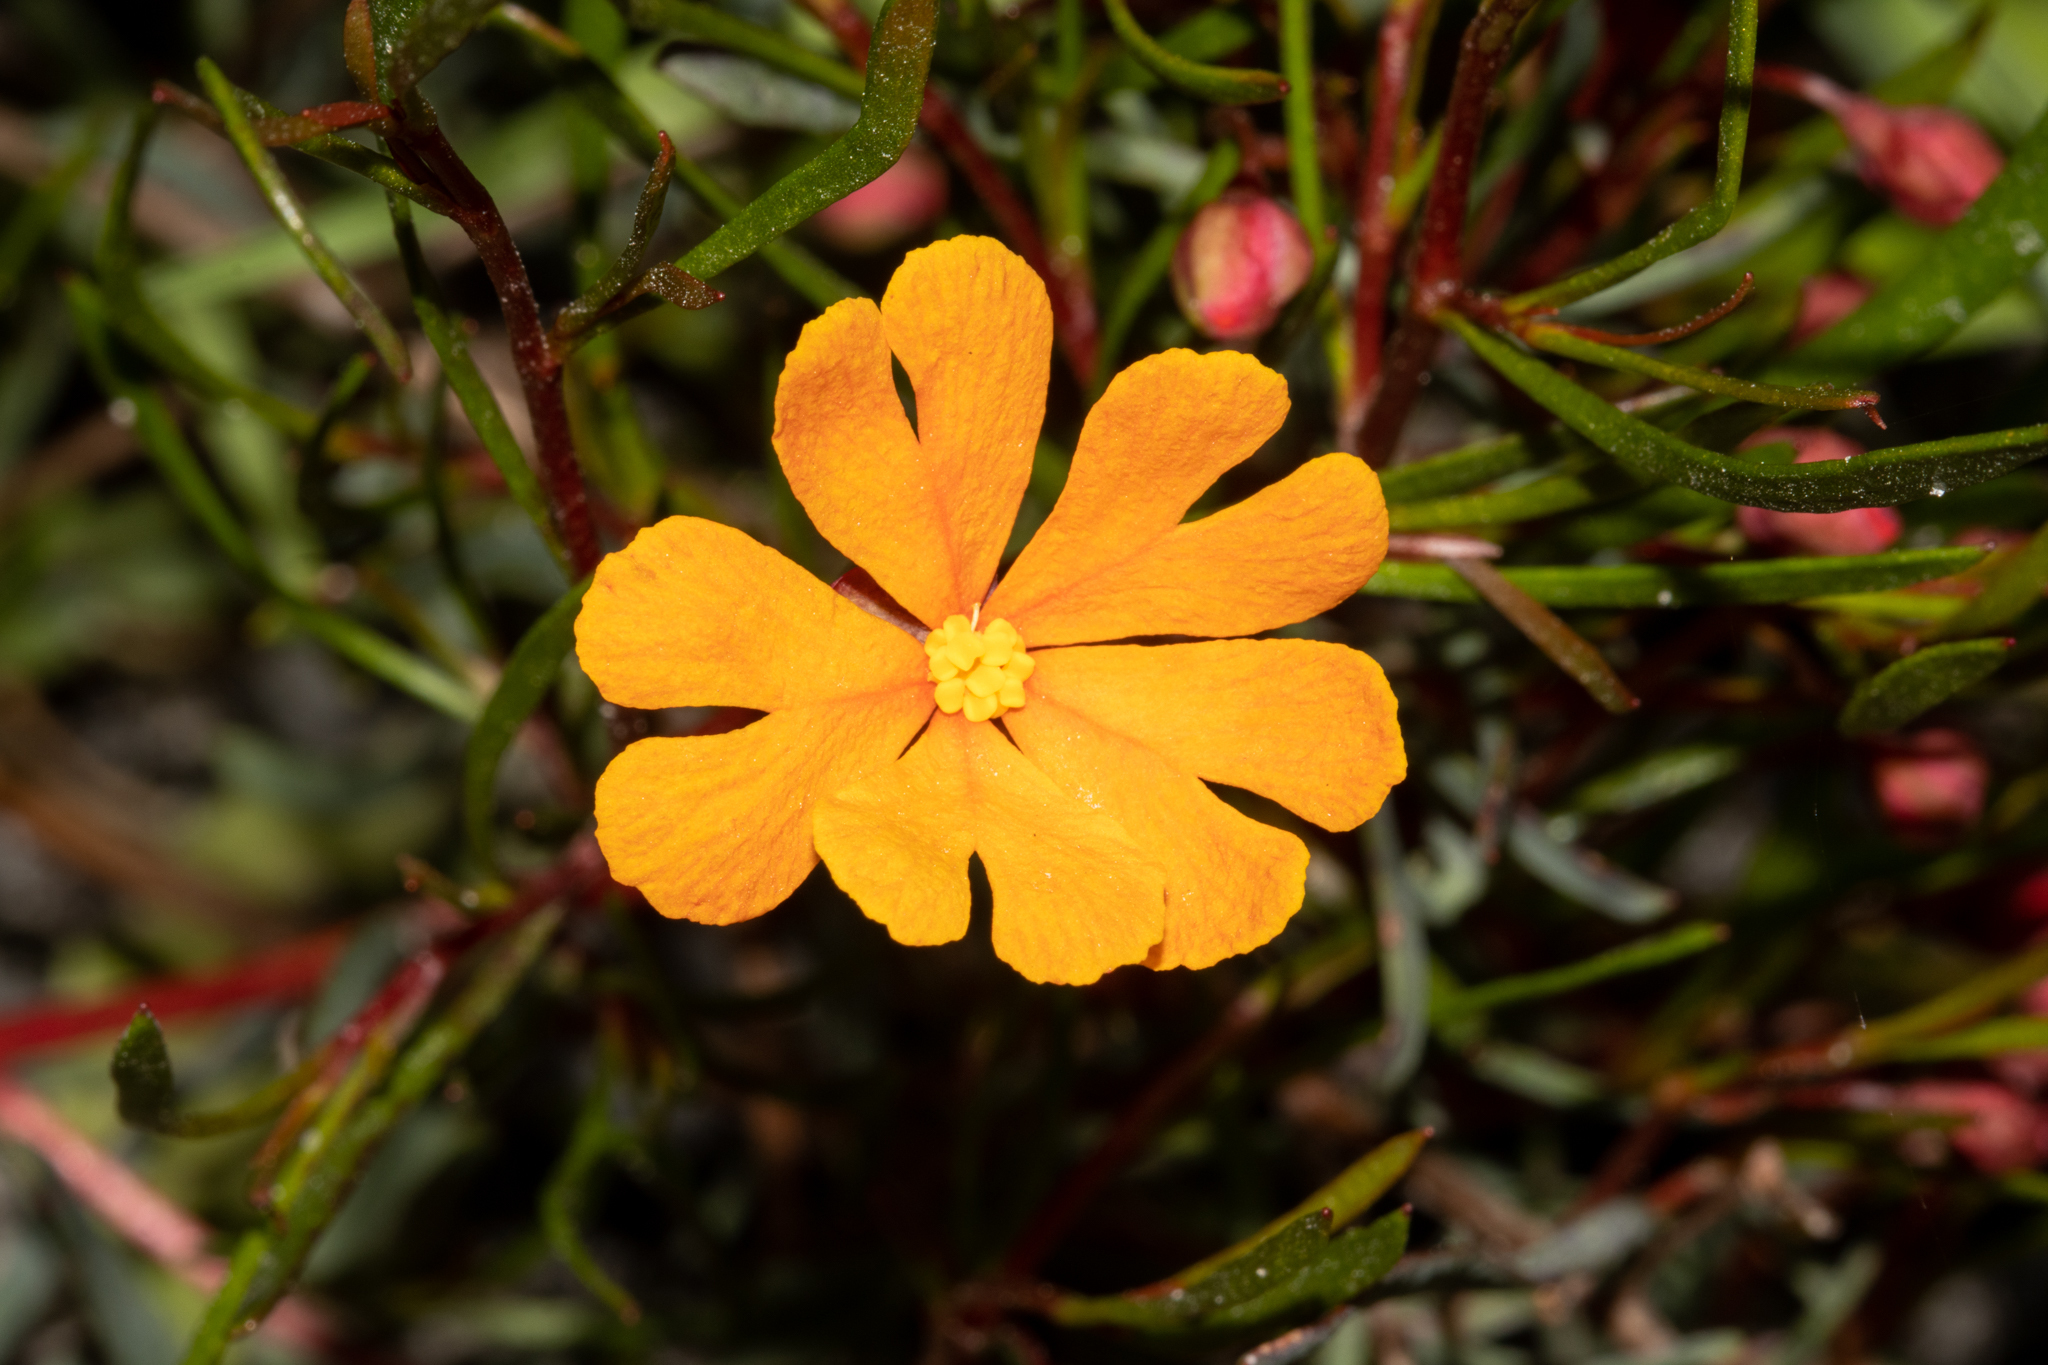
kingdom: Plantae
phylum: Tracheophyta
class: Magnoliopsida
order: Dilleniales
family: Dilleniaceae
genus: Hibbertia
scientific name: Hibbertia stellaris
